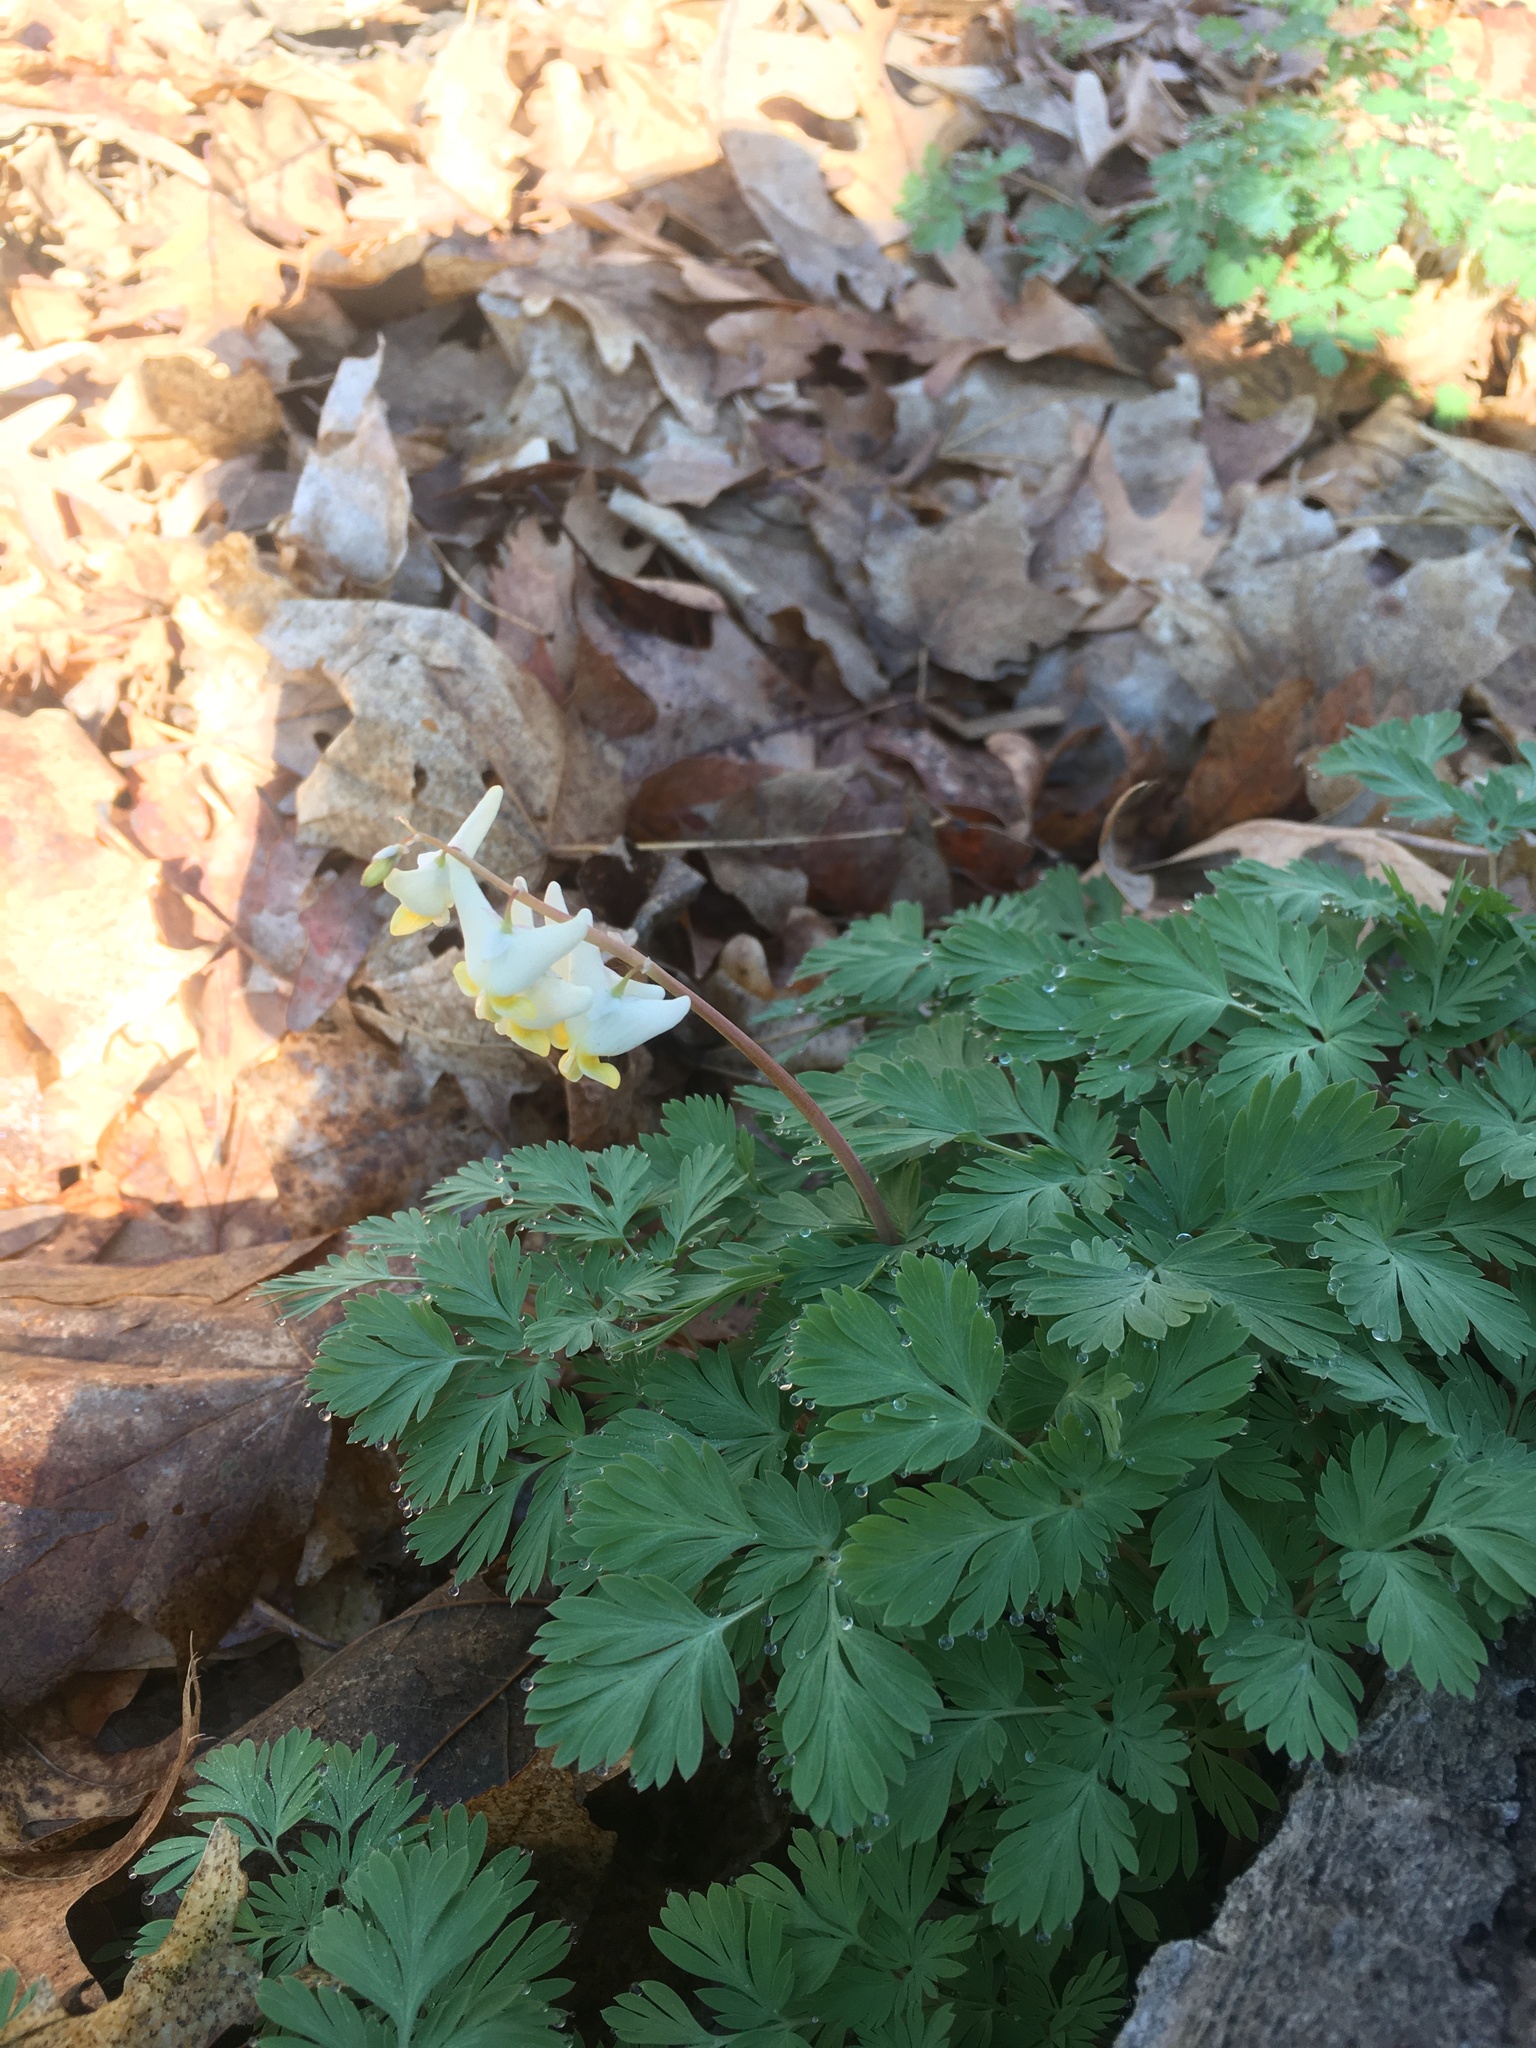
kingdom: Plantae
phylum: Tracheophyta
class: Magnoliopsida
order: Ranunculales
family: Papaveraceae
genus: Dicentra
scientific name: Dicentra cucullaria
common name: Dutchman's breeches
